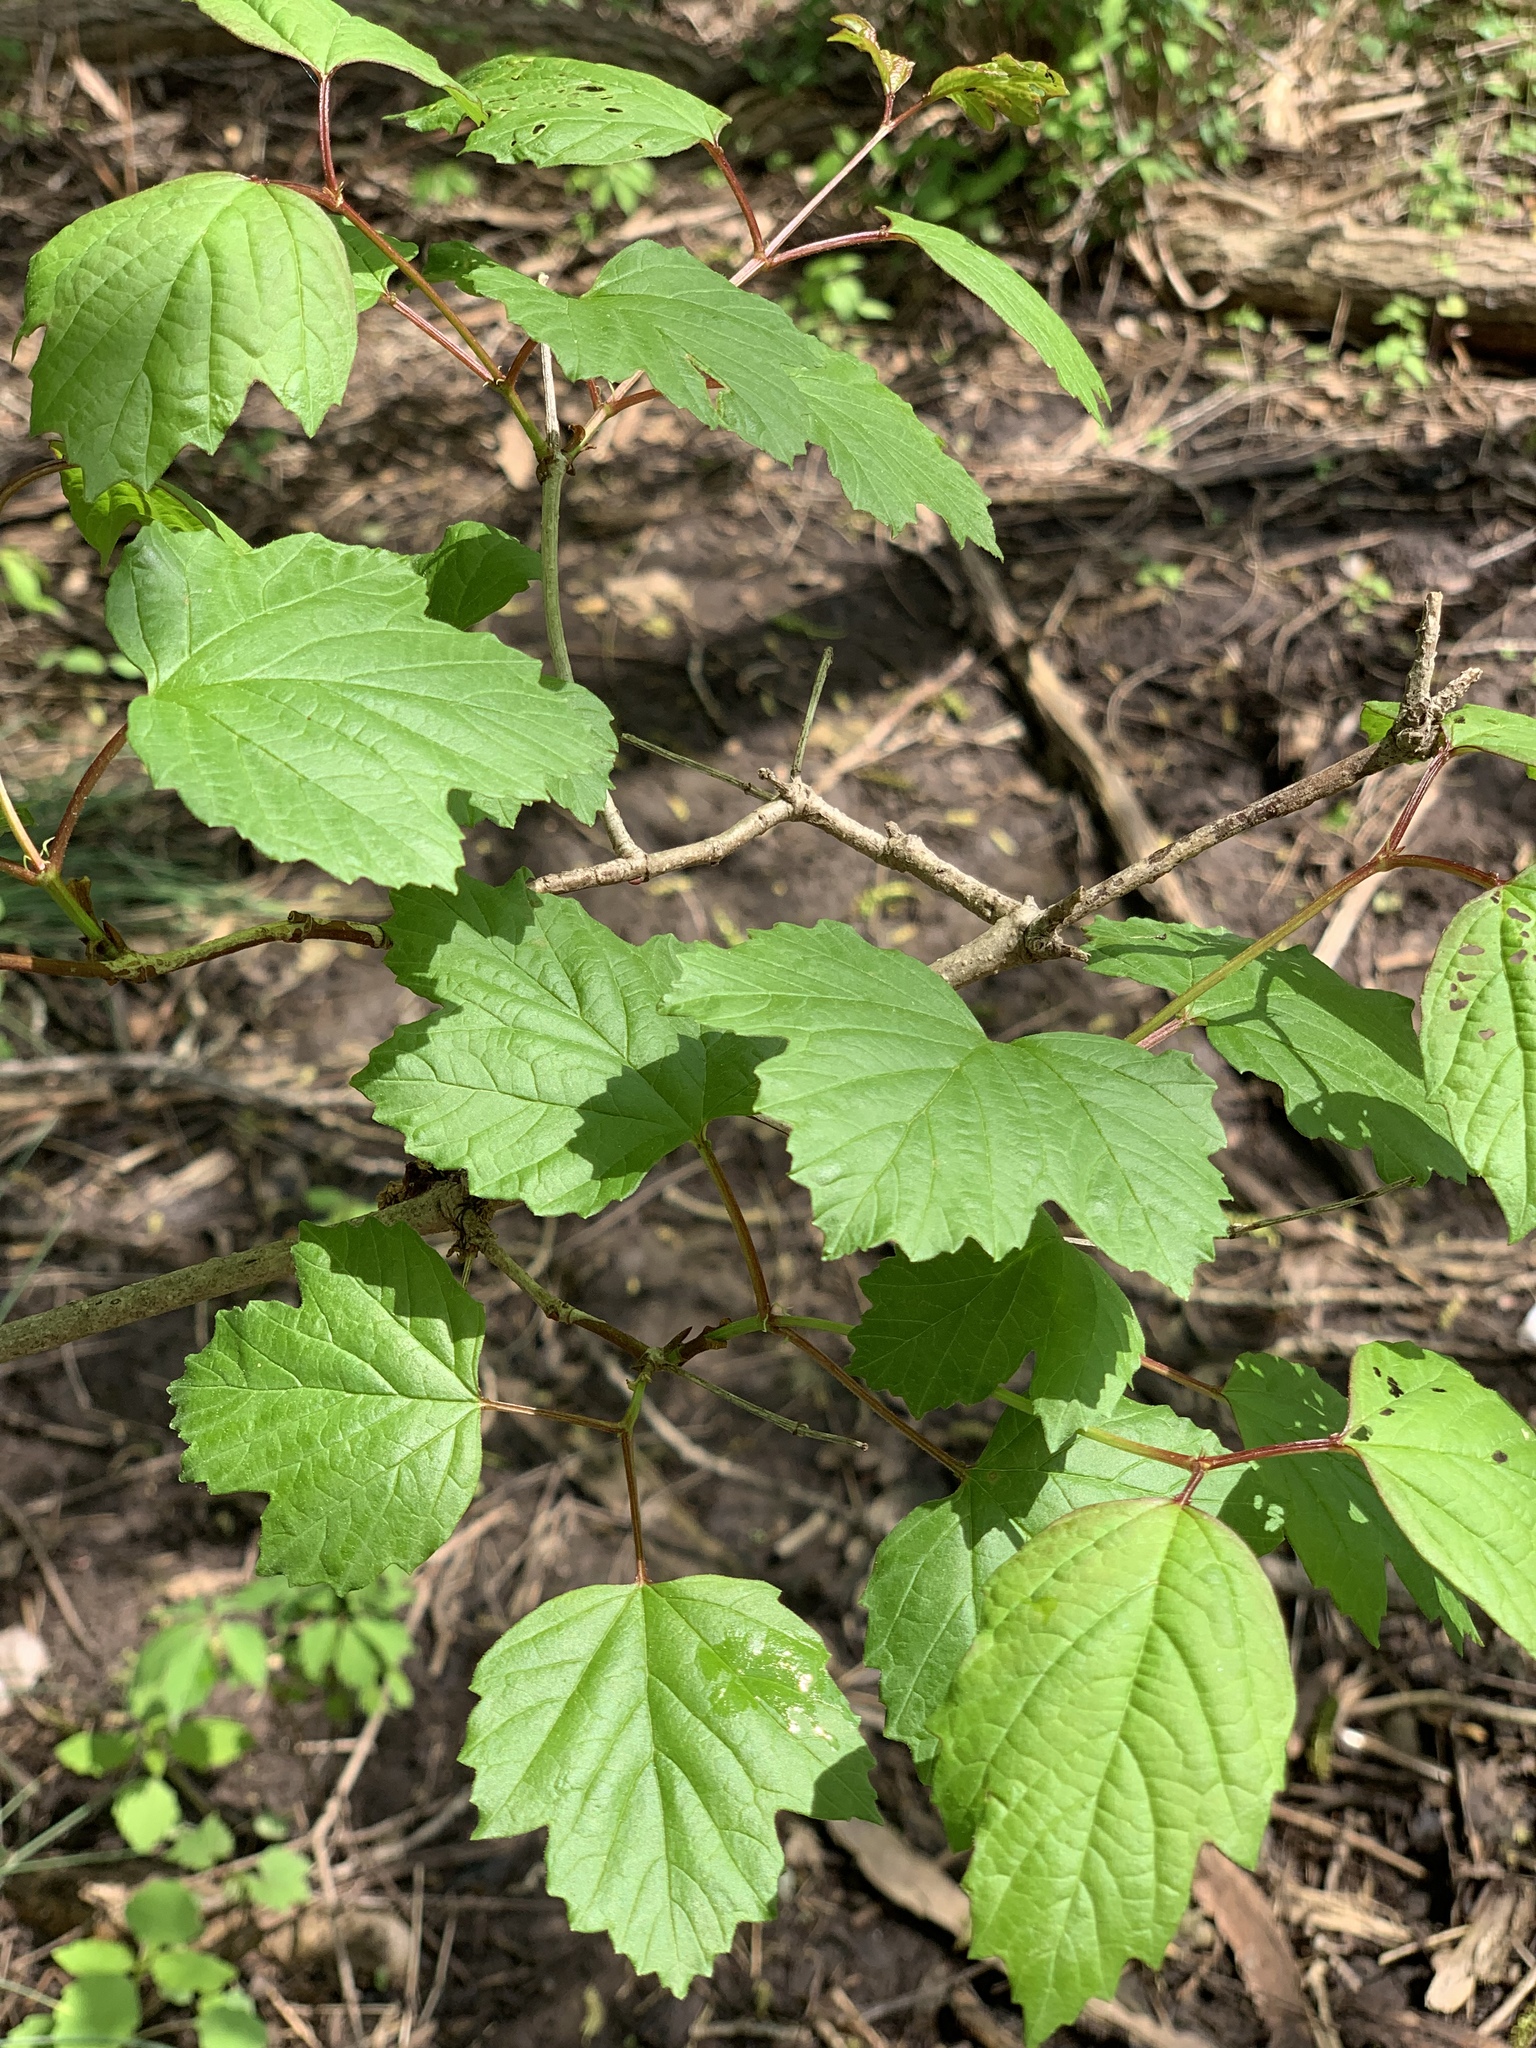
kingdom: Plantae
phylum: Tracheophyta
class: Magnoliopsida
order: Dipsacales
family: Viburnaceae
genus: Viburnum
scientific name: Viburnum opulus
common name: Guelder-rose
